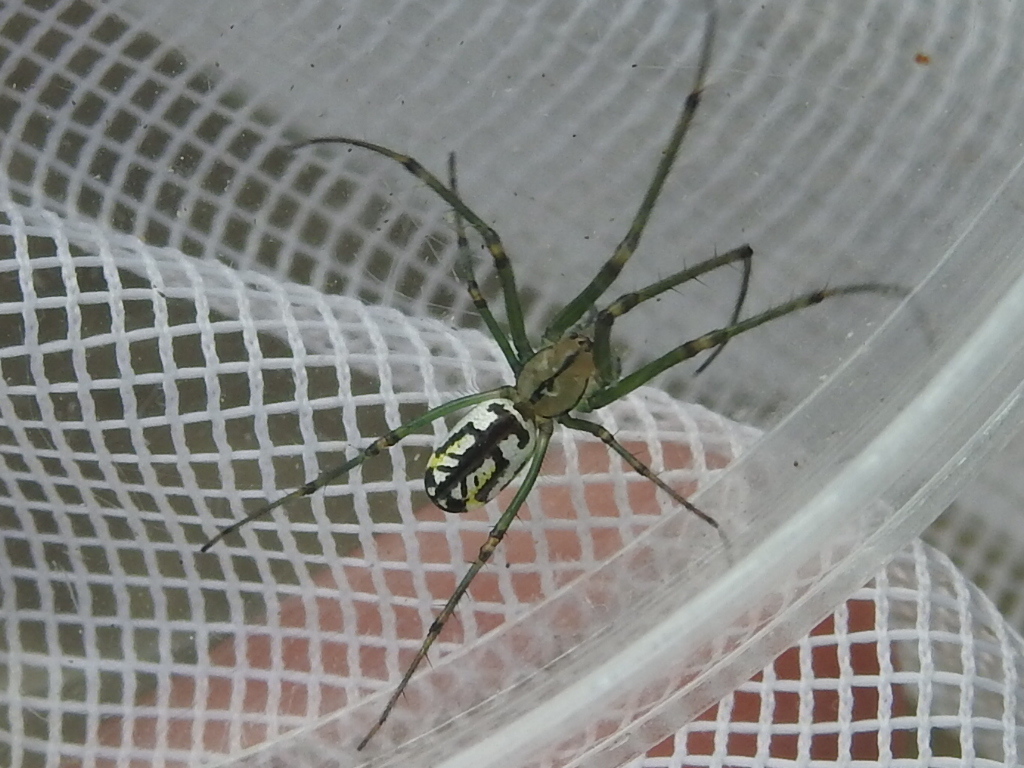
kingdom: Animalia
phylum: Arthropoda
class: Arachnida
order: Araneae
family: Tetragnathidae
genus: Leucauge
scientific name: Leucauge venusta
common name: Longjawed orb weavers
